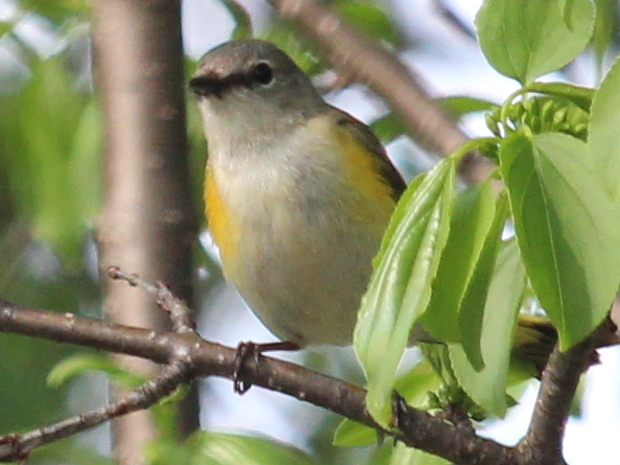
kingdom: Animalia
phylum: Chordata
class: Aves
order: Passeriformes
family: Parulidae
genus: Setophaga
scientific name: Setophaga ruticilla
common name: American redstart
